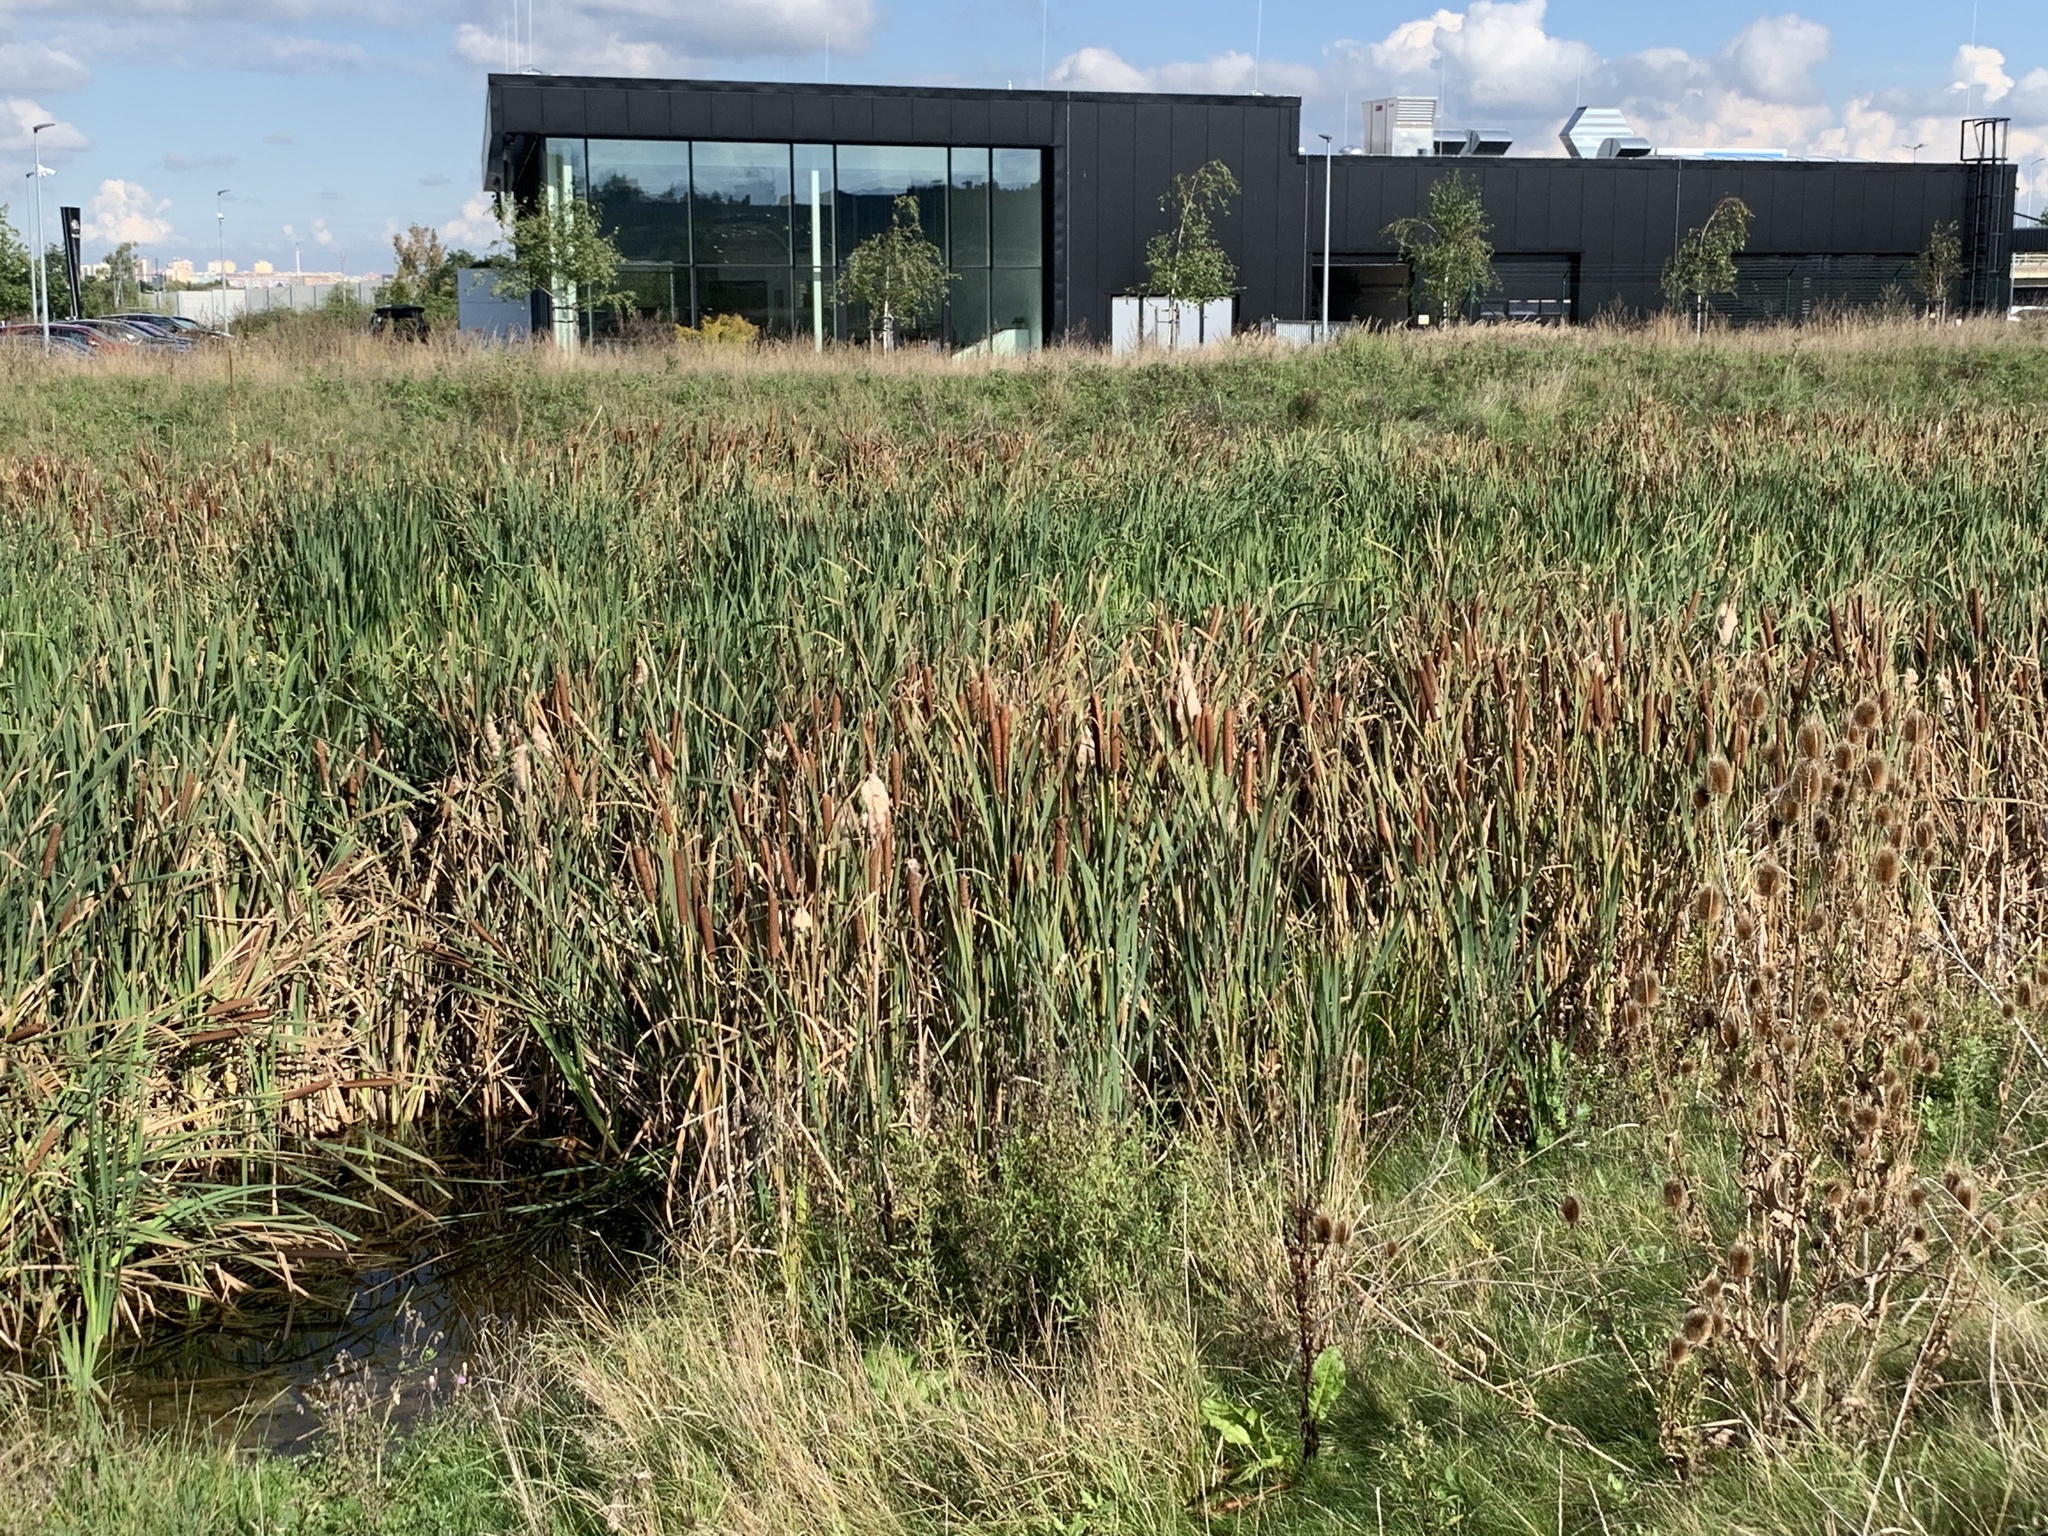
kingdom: Plantae
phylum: Tracheophyta
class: Liliopsida
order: Poales
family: Typhaceae
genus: Typha
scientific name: Typha latifolia
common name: Broadleaf cattail
